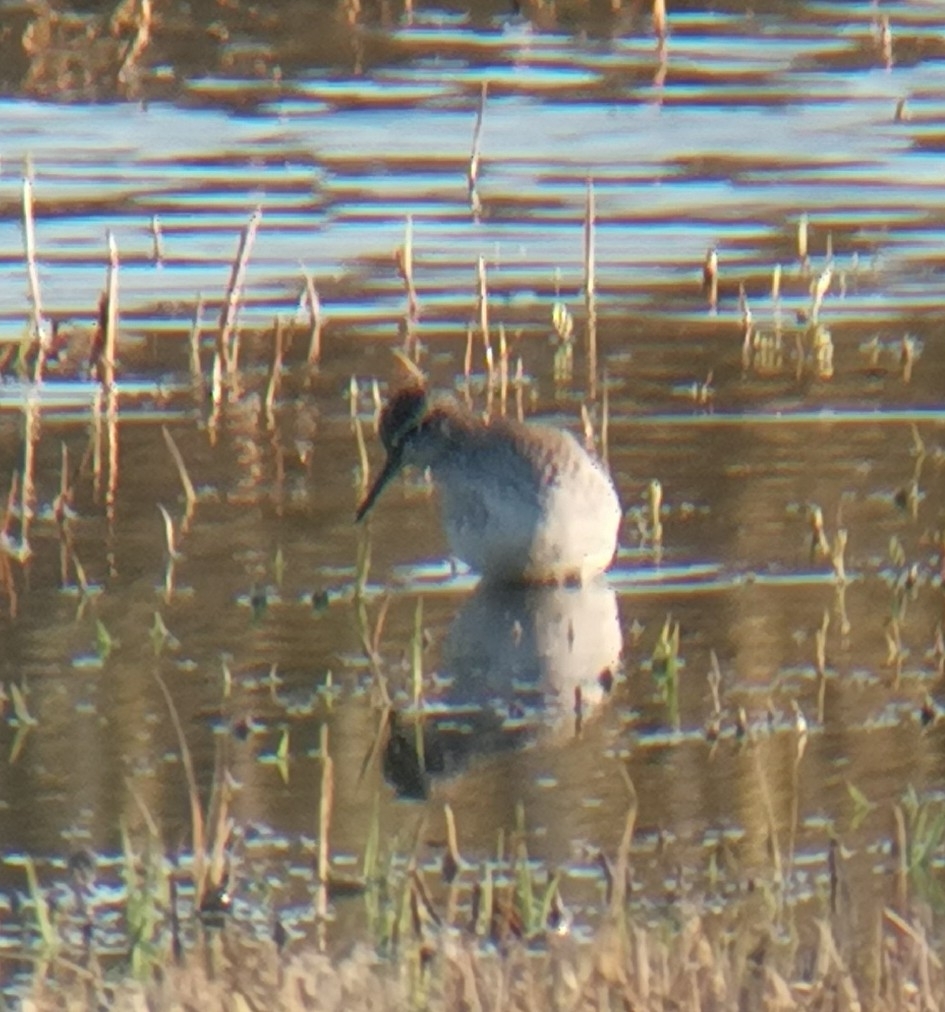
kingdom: Animalia
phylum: Chordata
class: Aves
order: Charadriiformes
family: Scolopacidae
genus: Tringa
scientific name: Tringa glareola
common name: Wood sandpiper
